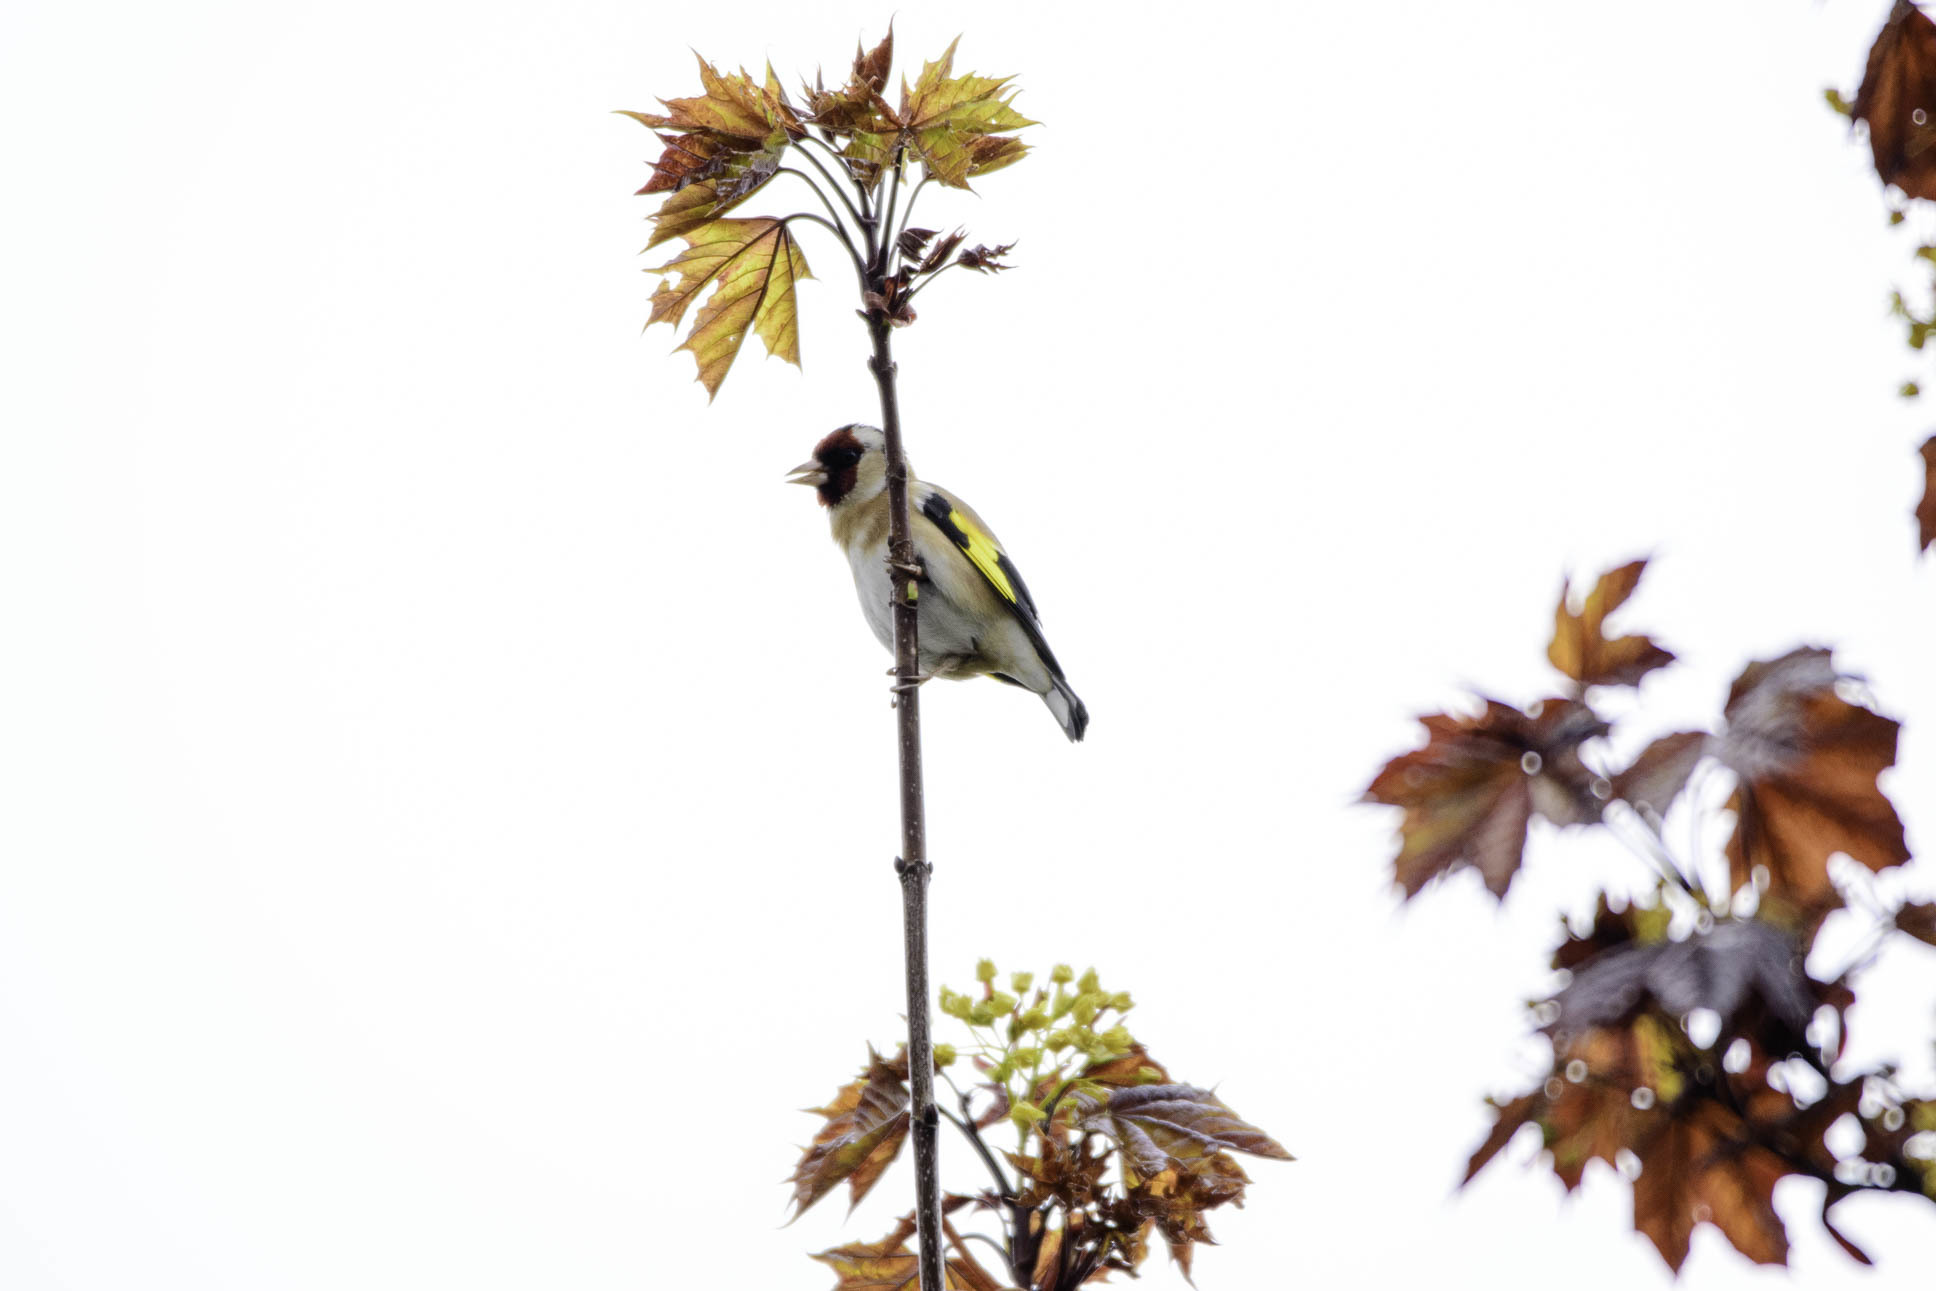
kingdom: Animalia
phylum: Chordata
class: Aves
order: Passeriformes
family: Fringillidae
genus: Carduelis
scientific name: Carduelis carduelis
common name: European goldfinch
